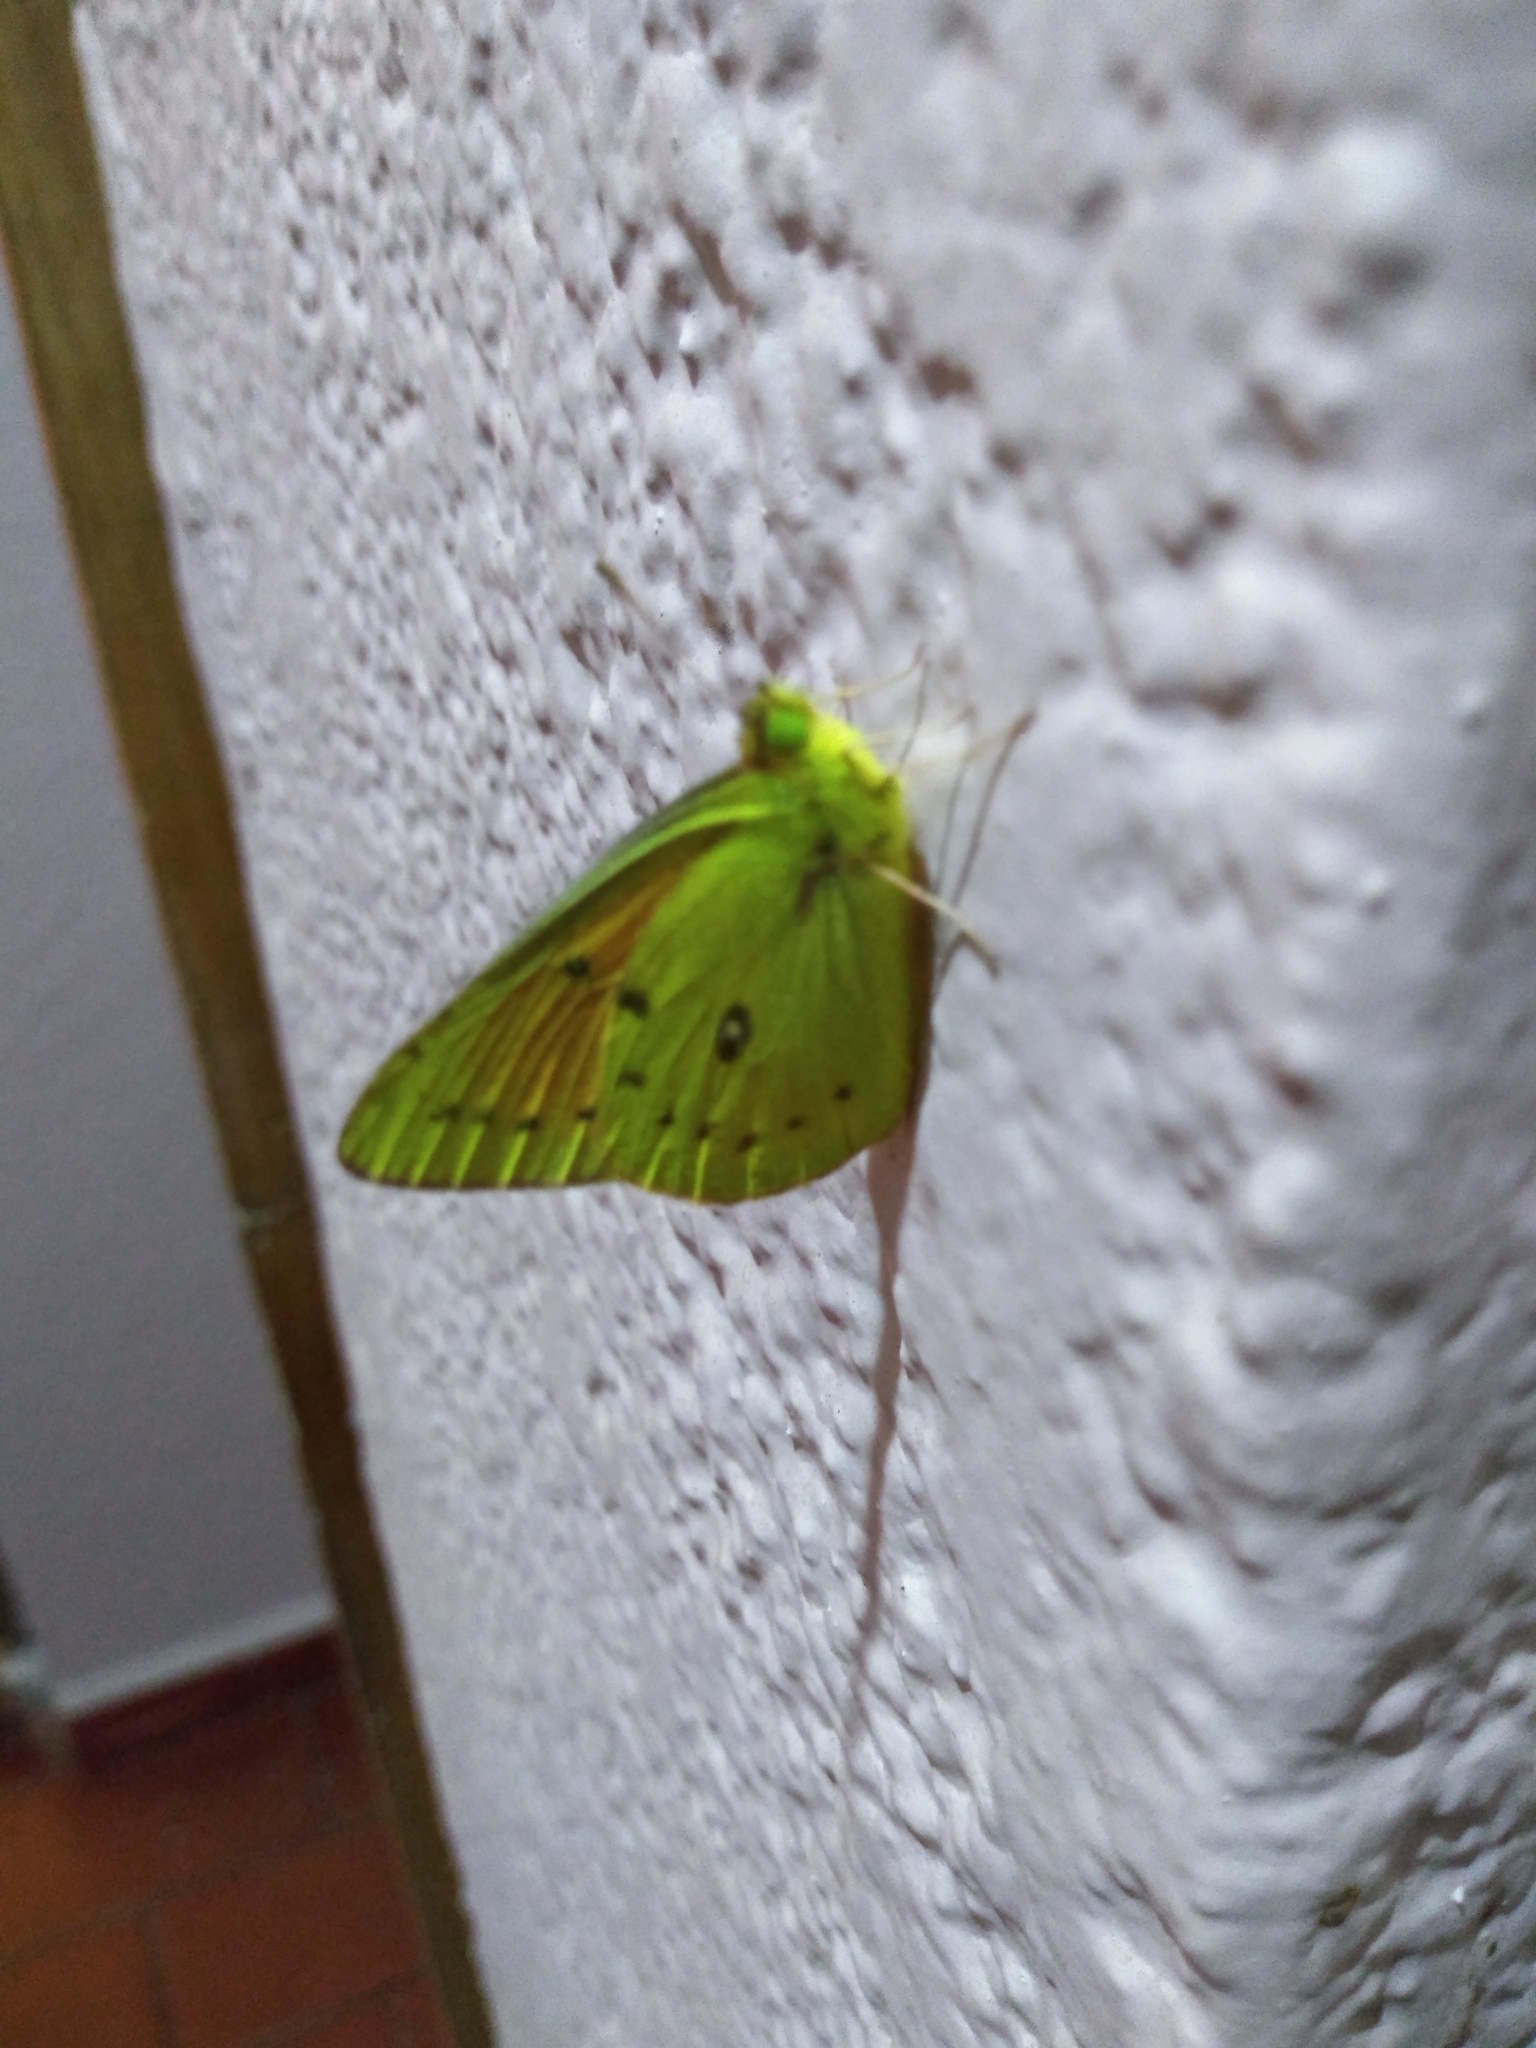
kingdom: Animalia
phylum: Arthropoda
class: Insecta
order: Lepidoptera
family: Pieridae
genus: Colias
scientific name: Colias lesbia
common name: Lesbia clouded yellow
